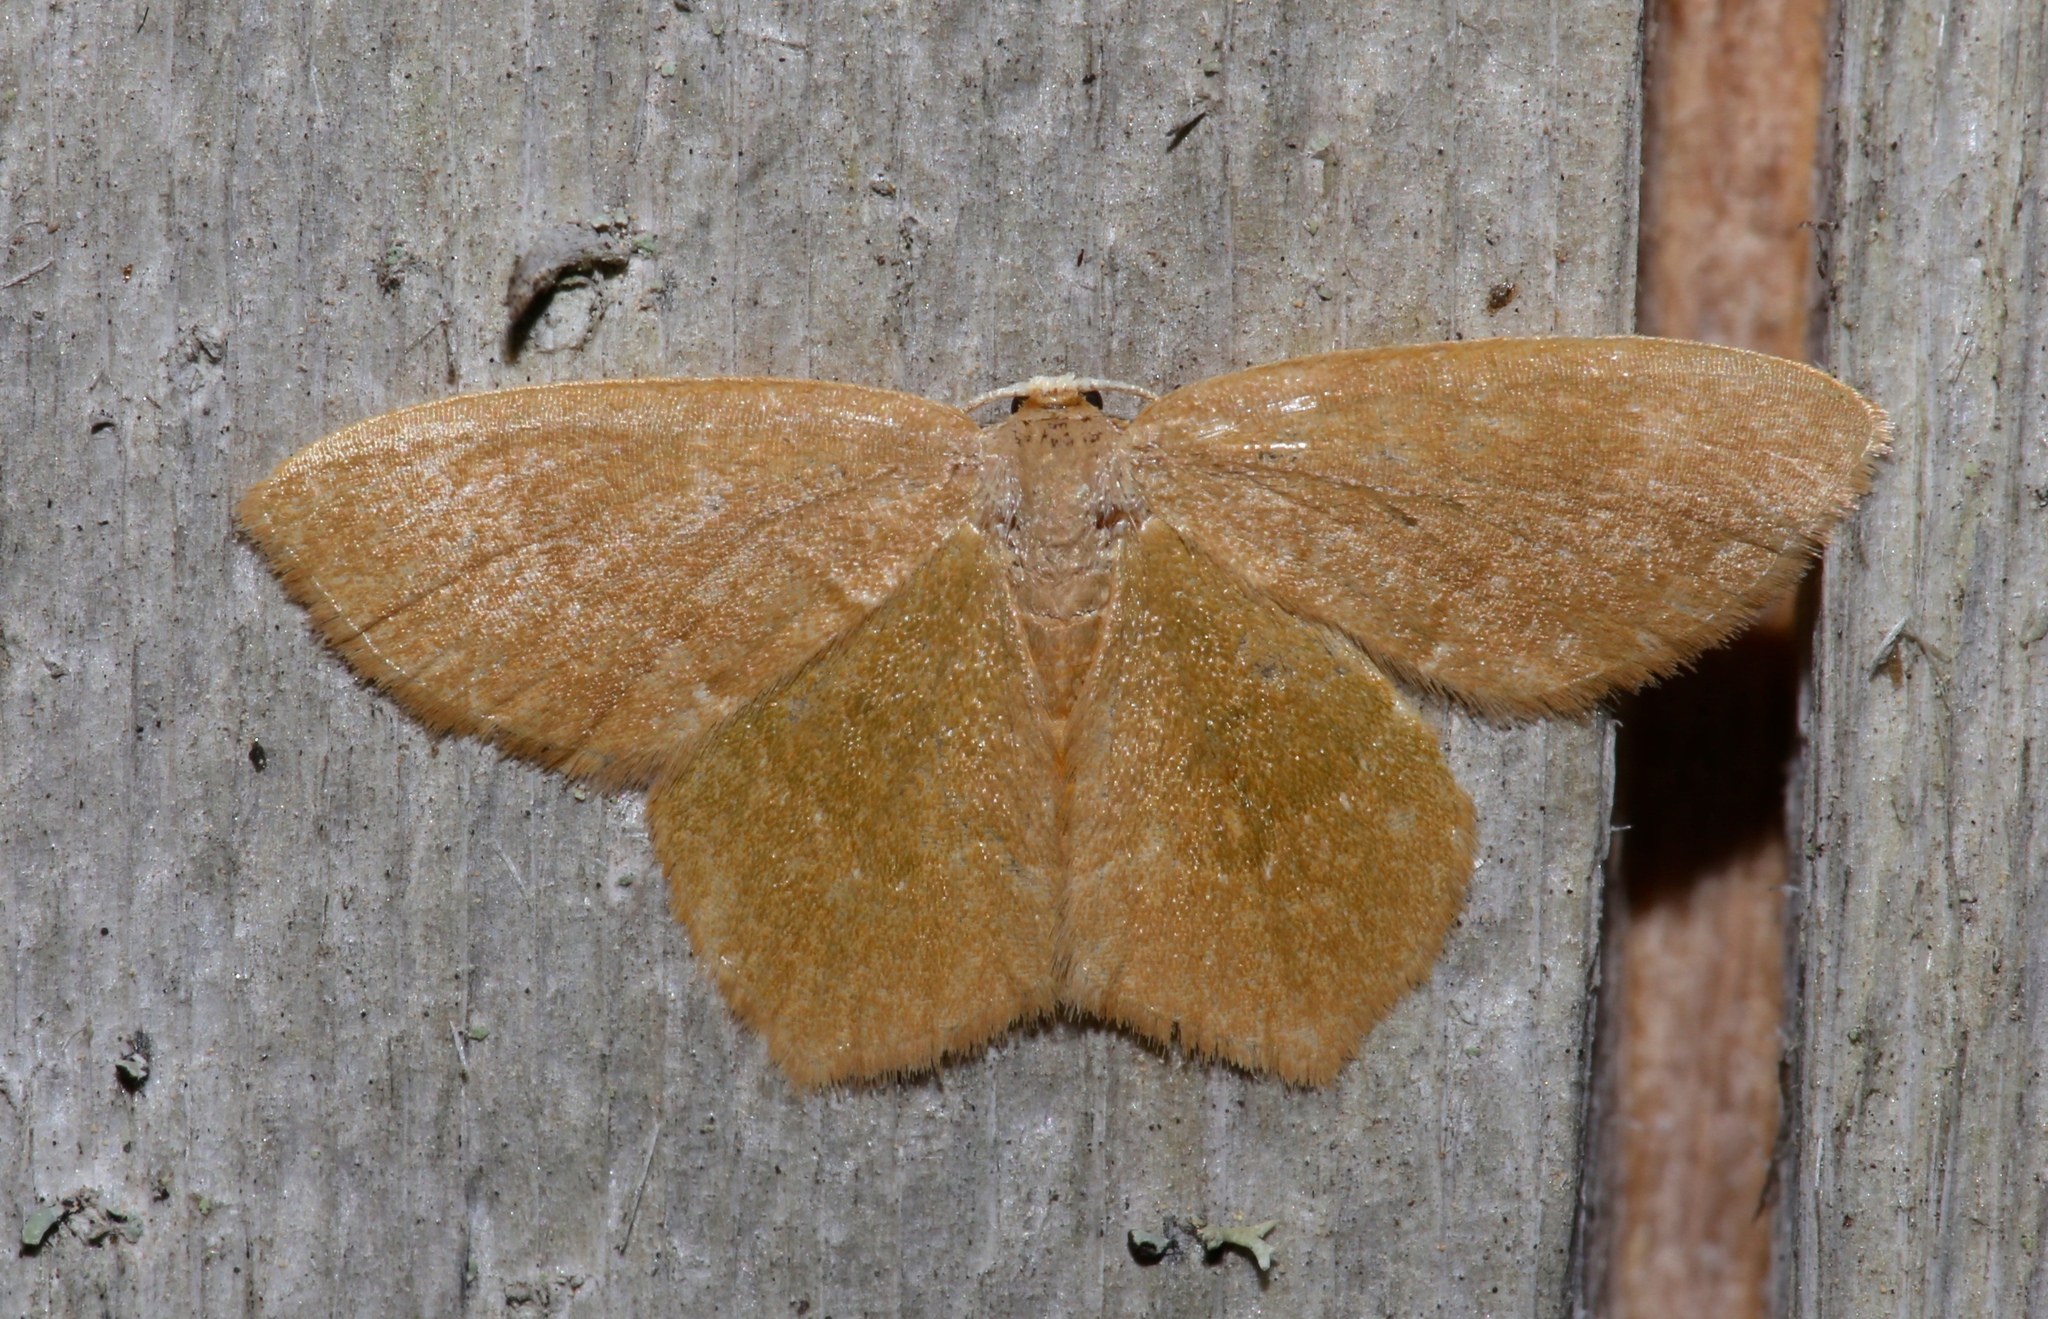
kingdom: Animalia
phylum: Arthropoda
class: Insecta
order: Lepidoptera
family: Geometridae
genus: Thalera
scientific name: Thalera pistasciaria
